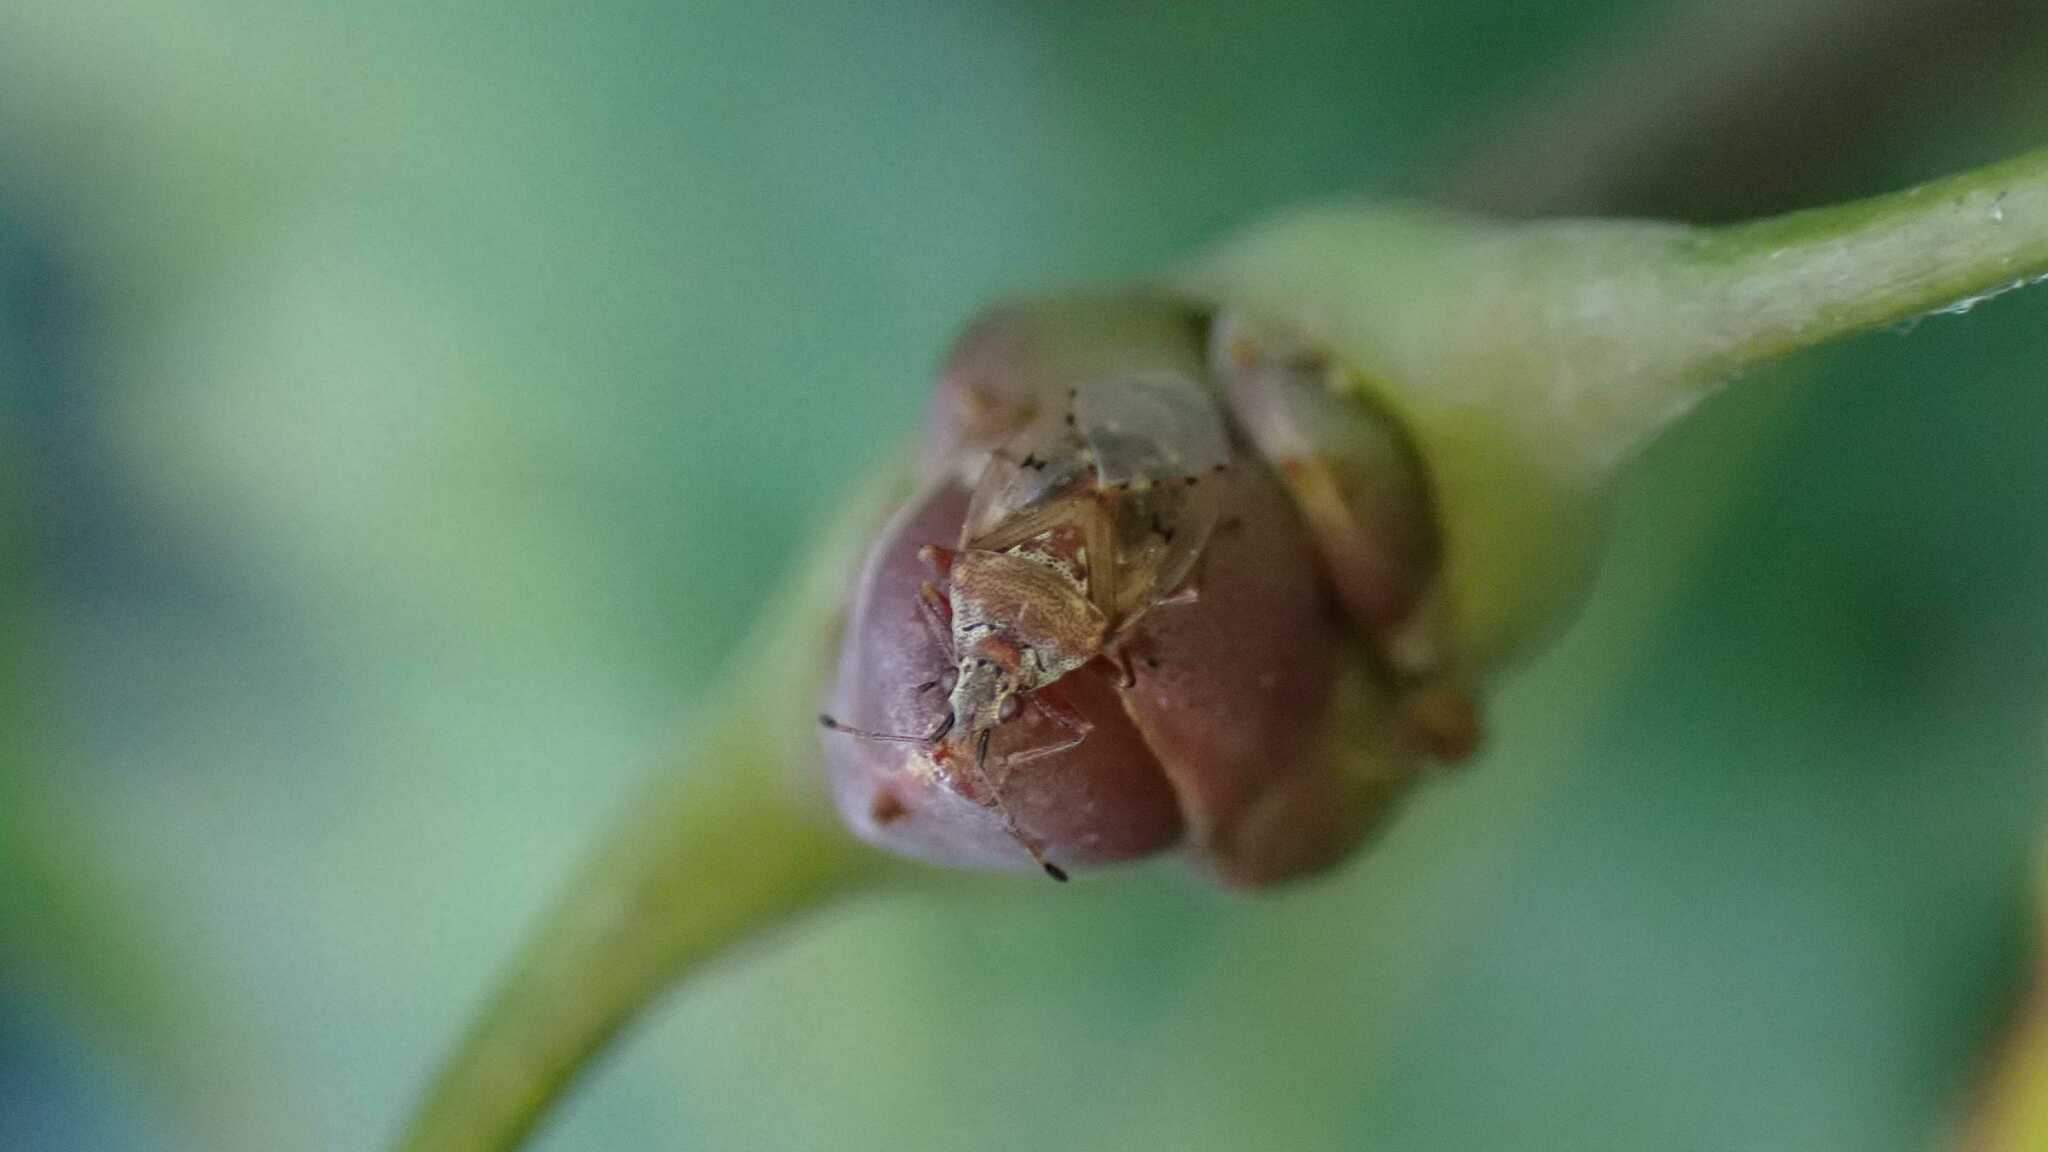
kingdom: Animalia
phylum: Arthropoda
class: Insecta
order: Hemiptera
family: Lygaeidae
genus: Kleidocerys
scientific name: Kleidocerys resedae
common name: Birch catkin bug
